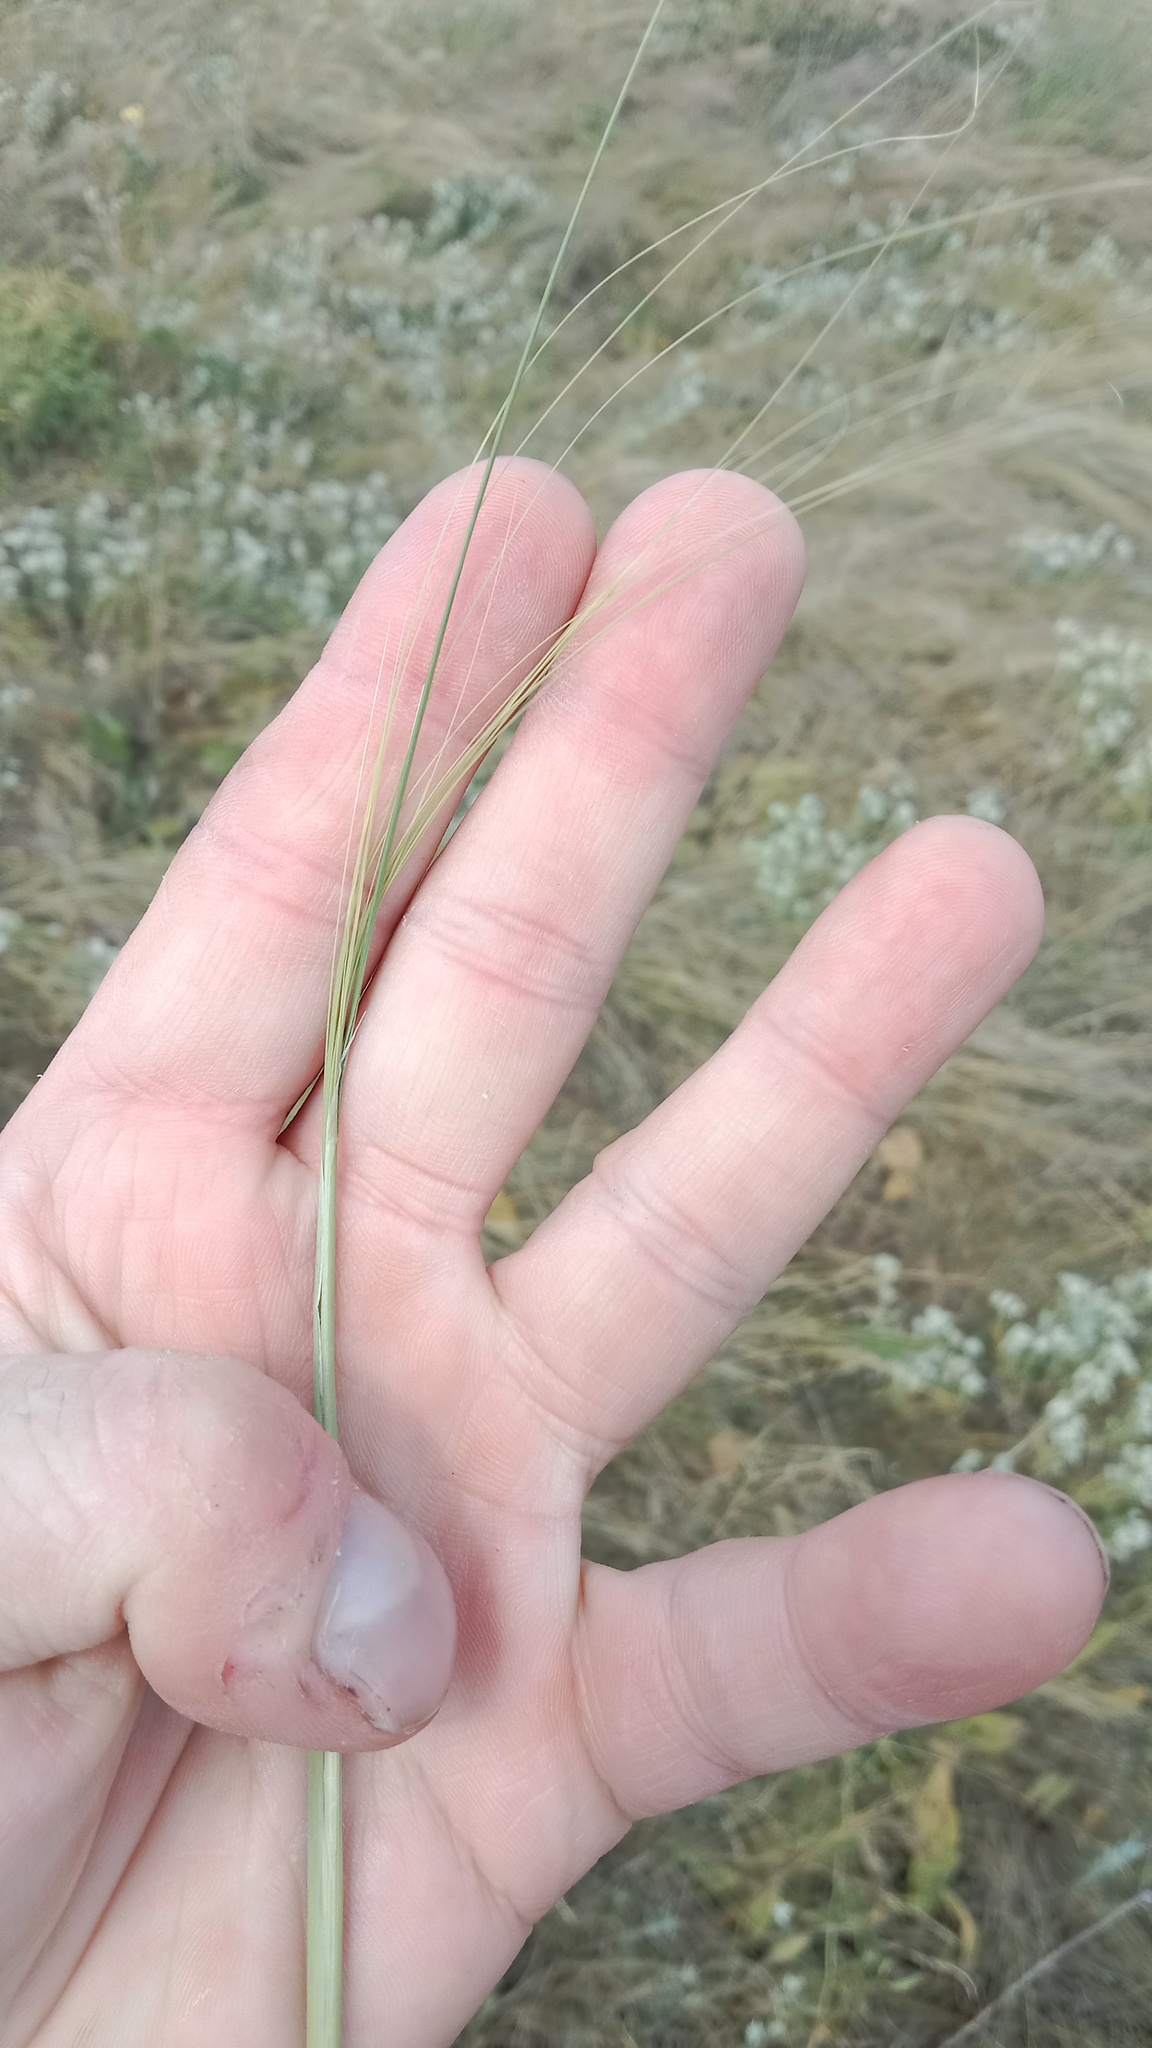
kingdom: Plantae
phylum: Tracheophyta
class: Liliopsida
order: Poales
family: Poaceae
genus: Stipa
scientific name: Stipa capillata
